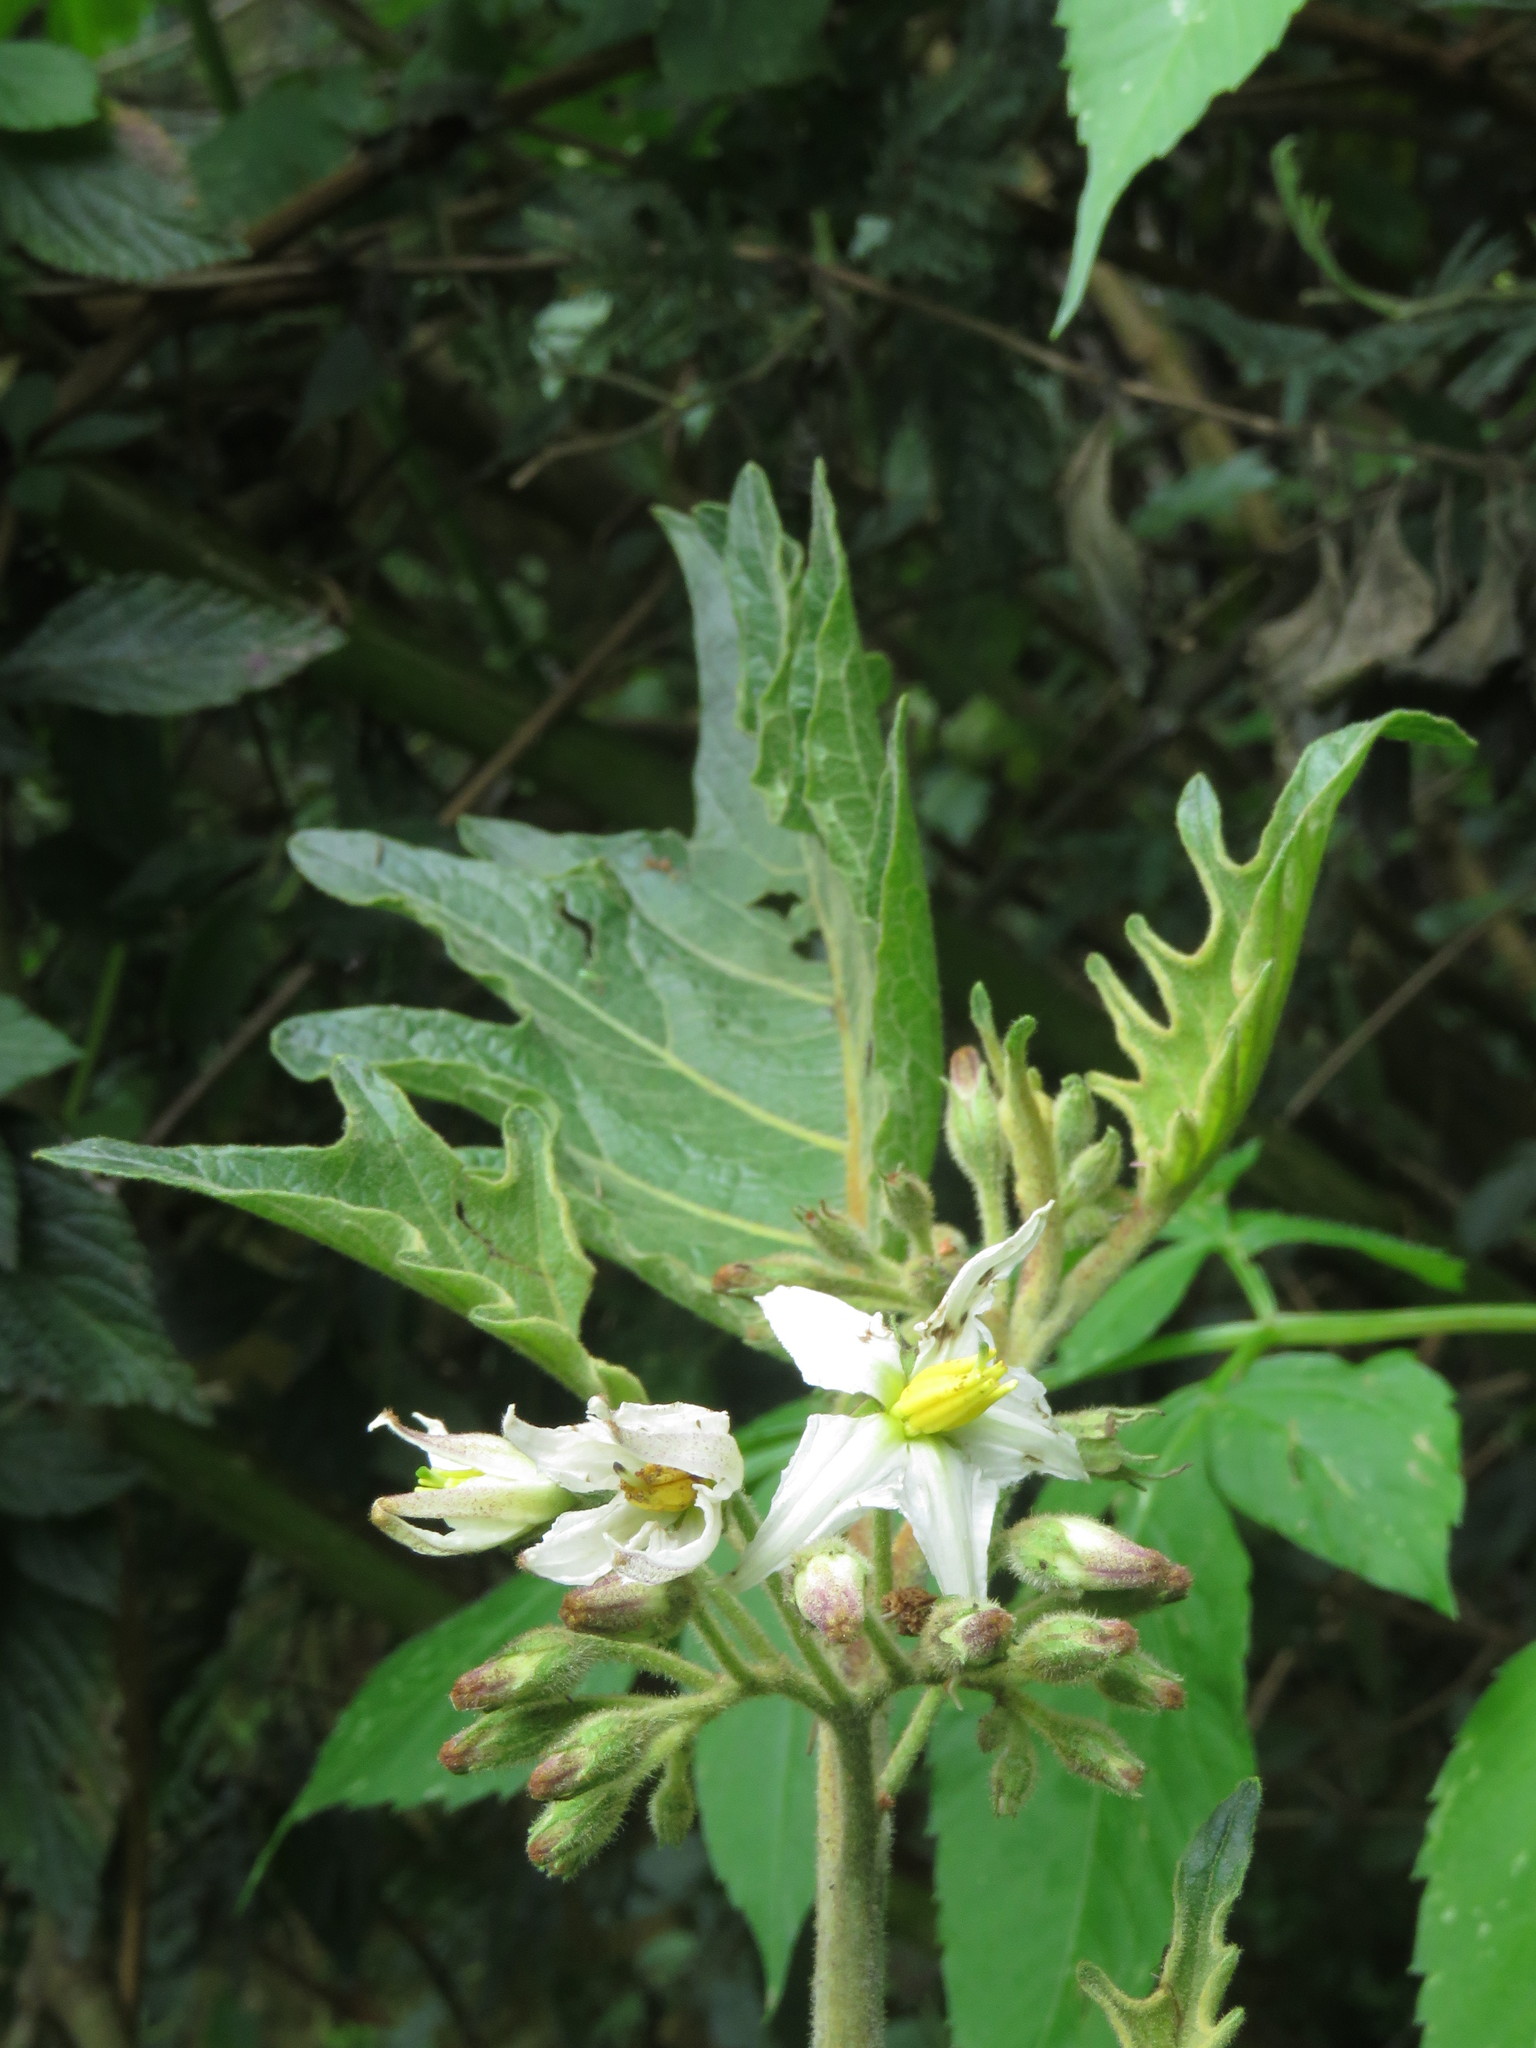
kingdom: Plantae
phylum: Tracheophyta
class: Magnoliopsida
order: Solanales
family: Solanaceae
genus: Solanum
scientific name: Solanum stellatiglandulosum
